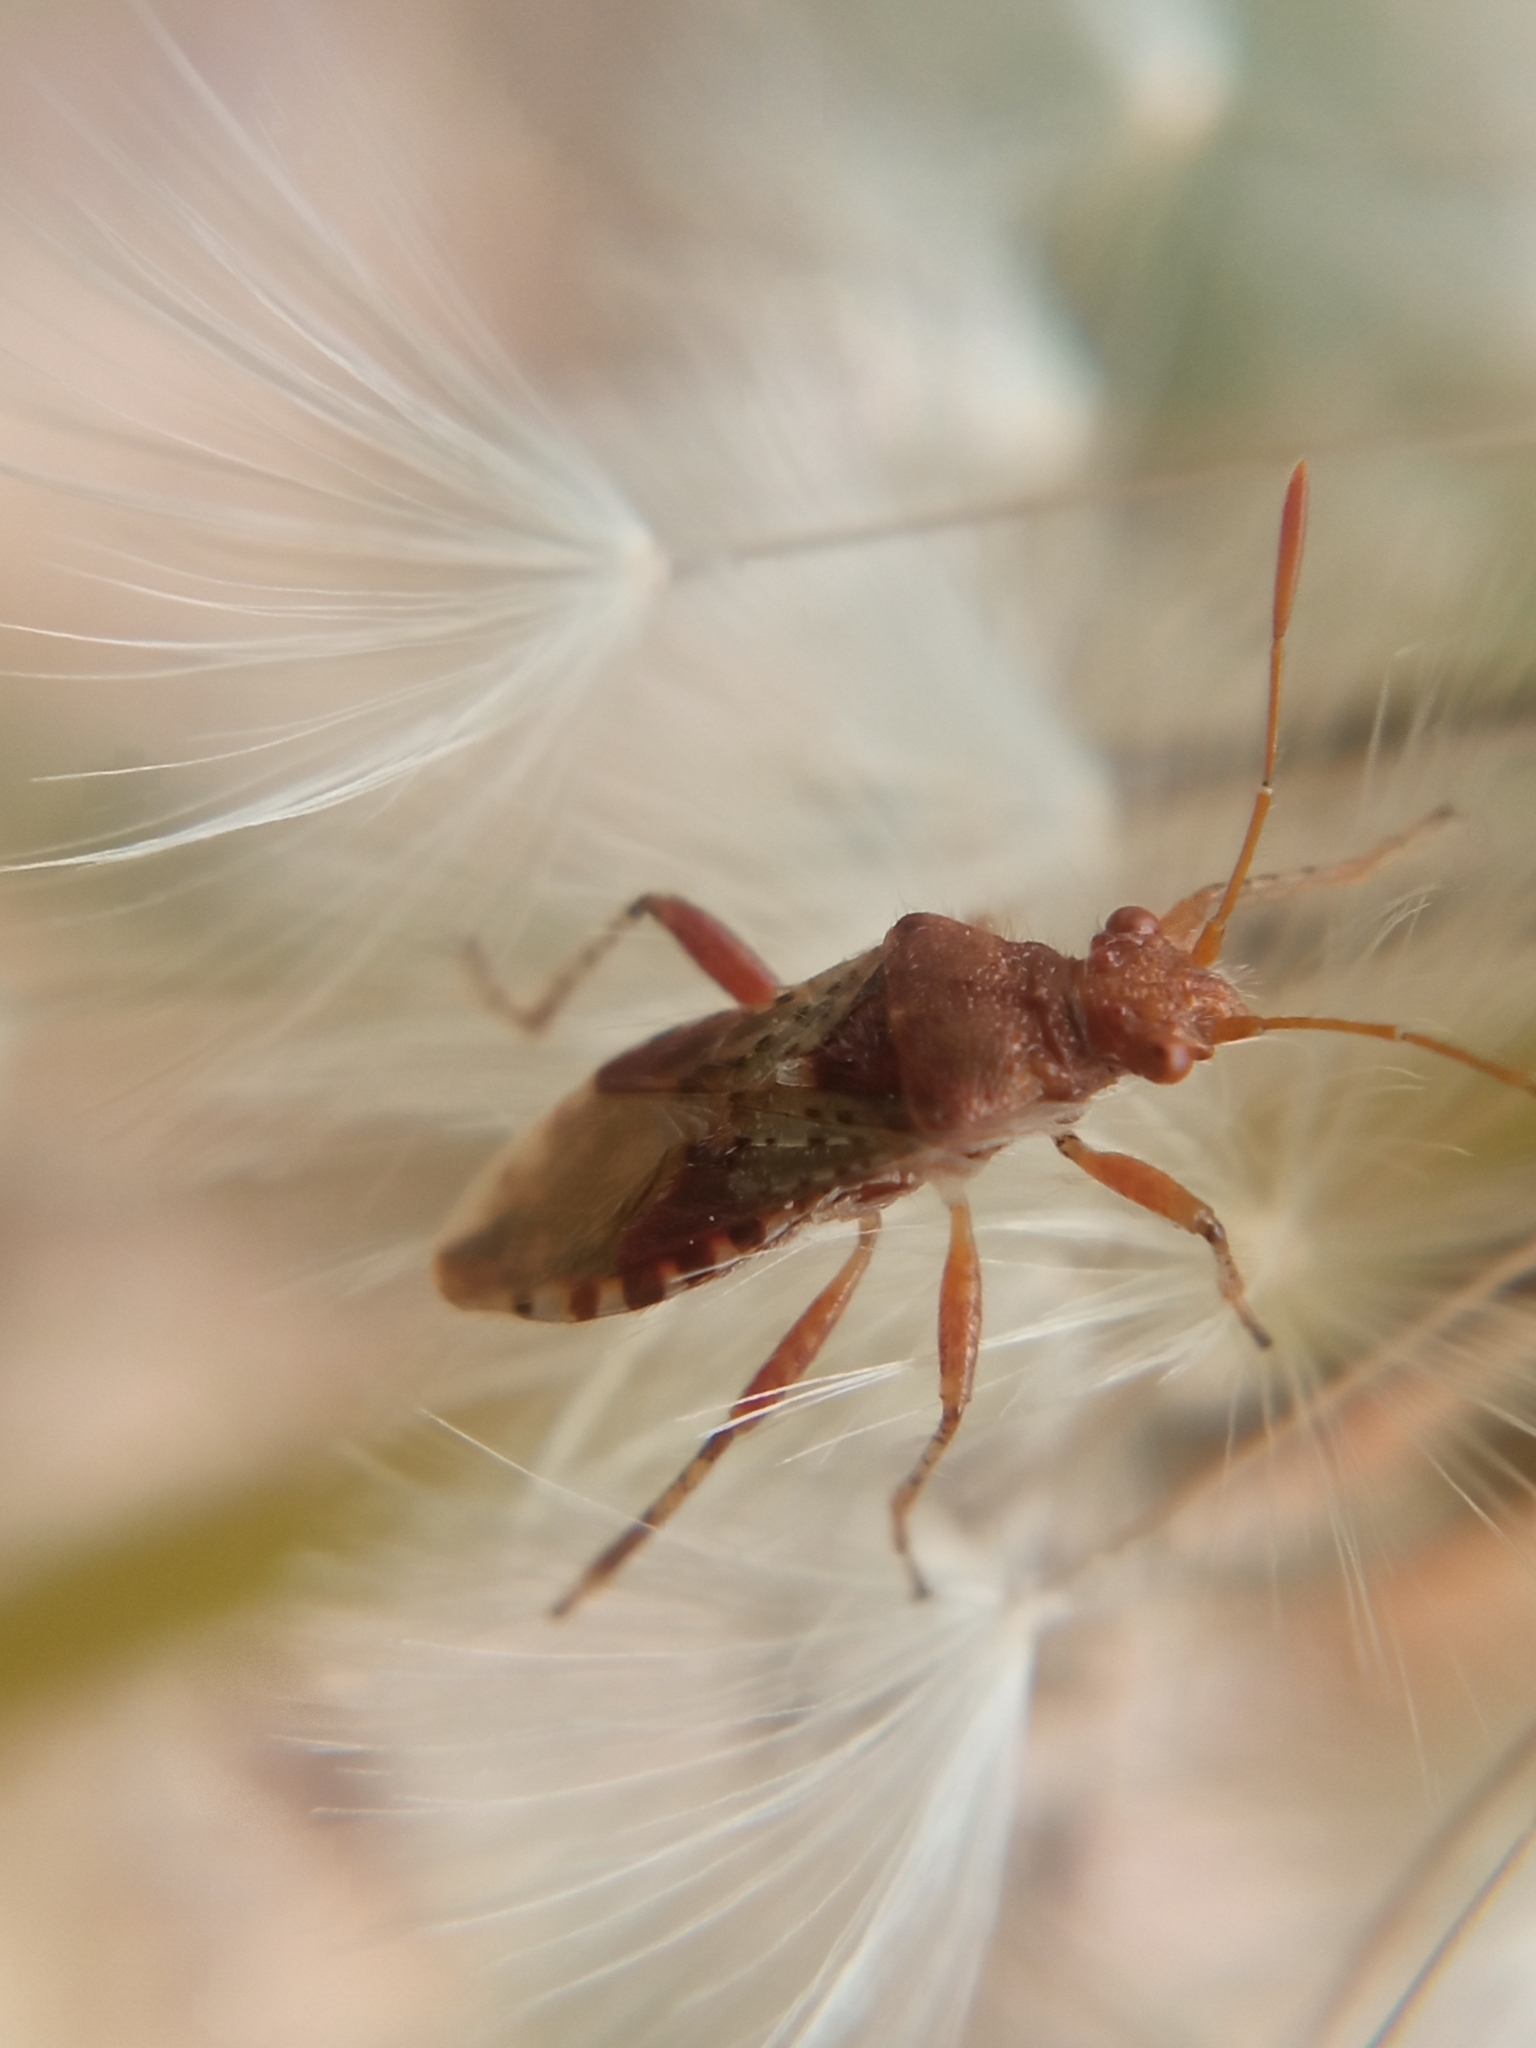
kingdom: Animalia
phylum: Arthropoda
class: Insecta
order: Hemiptera
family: Rhopalidae
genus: Rhopalus
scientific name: Rhopalus subrufus
